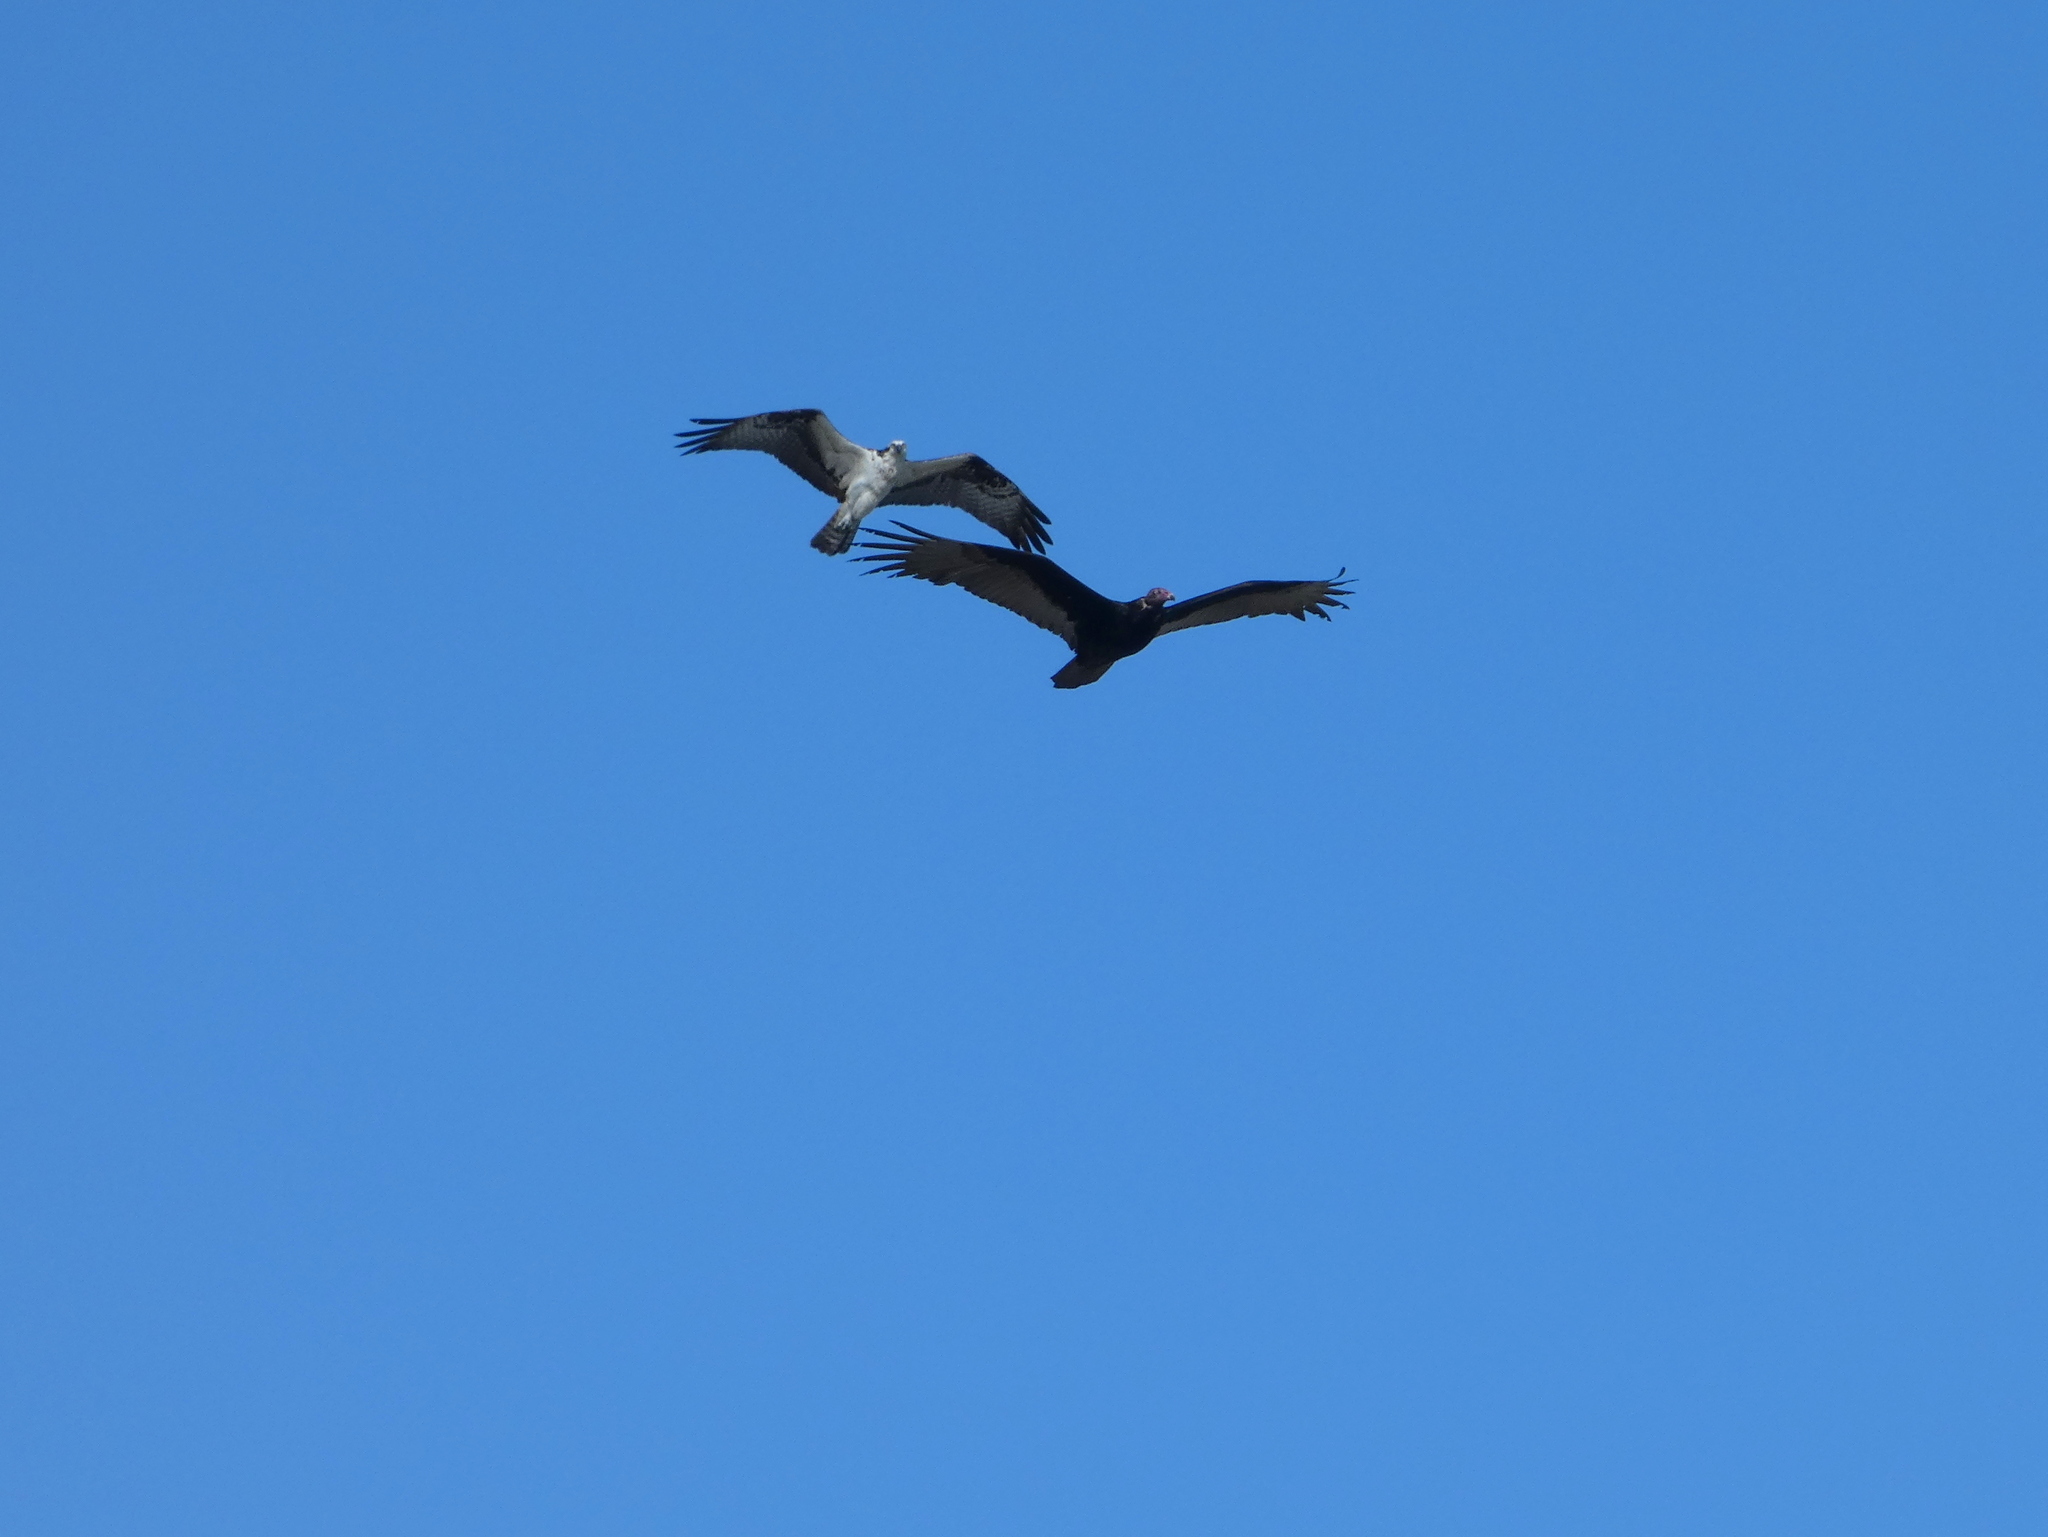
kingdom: Animalia
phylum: Chordata
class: Aves
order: Accipitriformes
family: Cathartidae
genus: Cathartes
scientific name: Cathartes aura
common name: Turkey vulture
